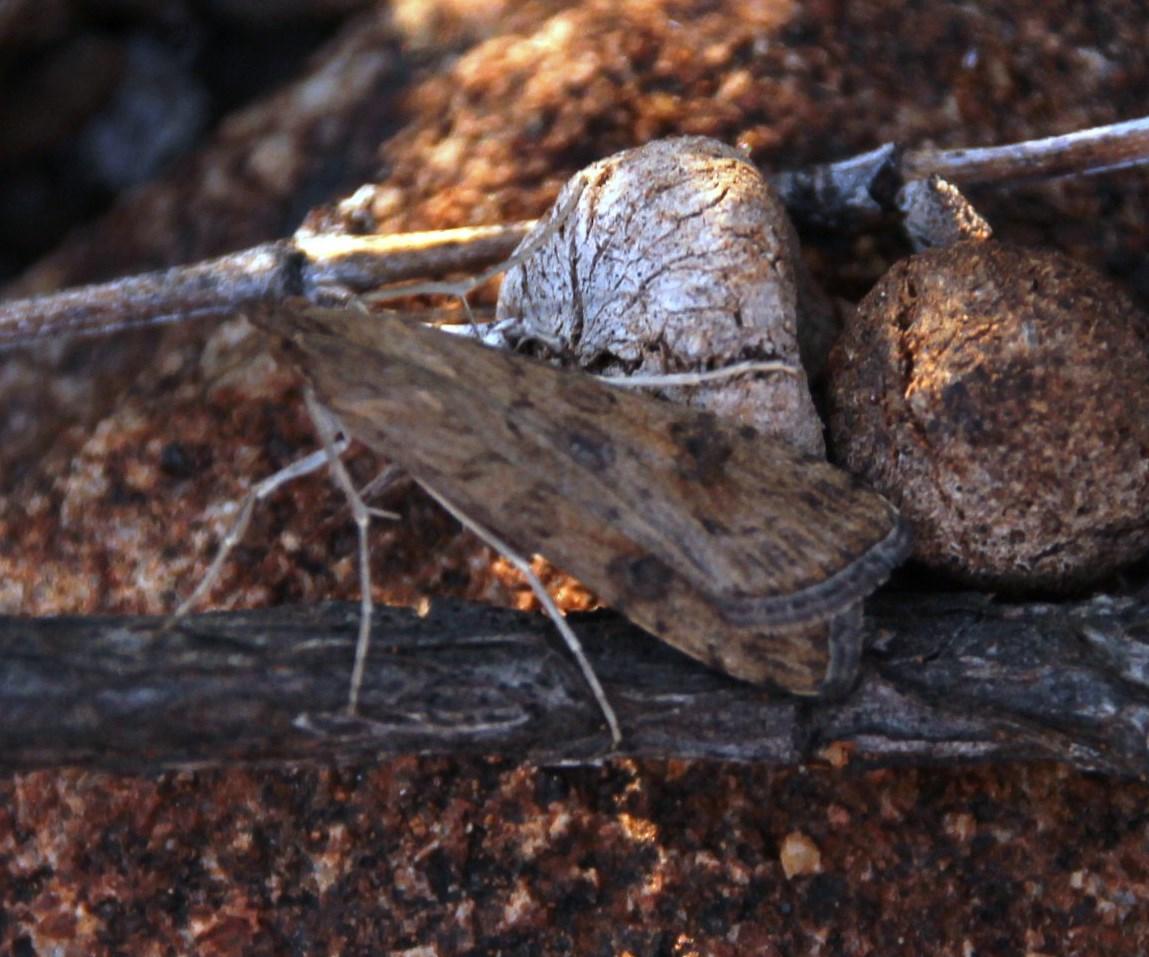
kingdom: Animalia
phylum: Arthropoda
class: Insecta
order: Lepidoptera
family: Crambidae
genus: Nomophila
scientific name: Nomophila noctuella
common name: Rush veneer
